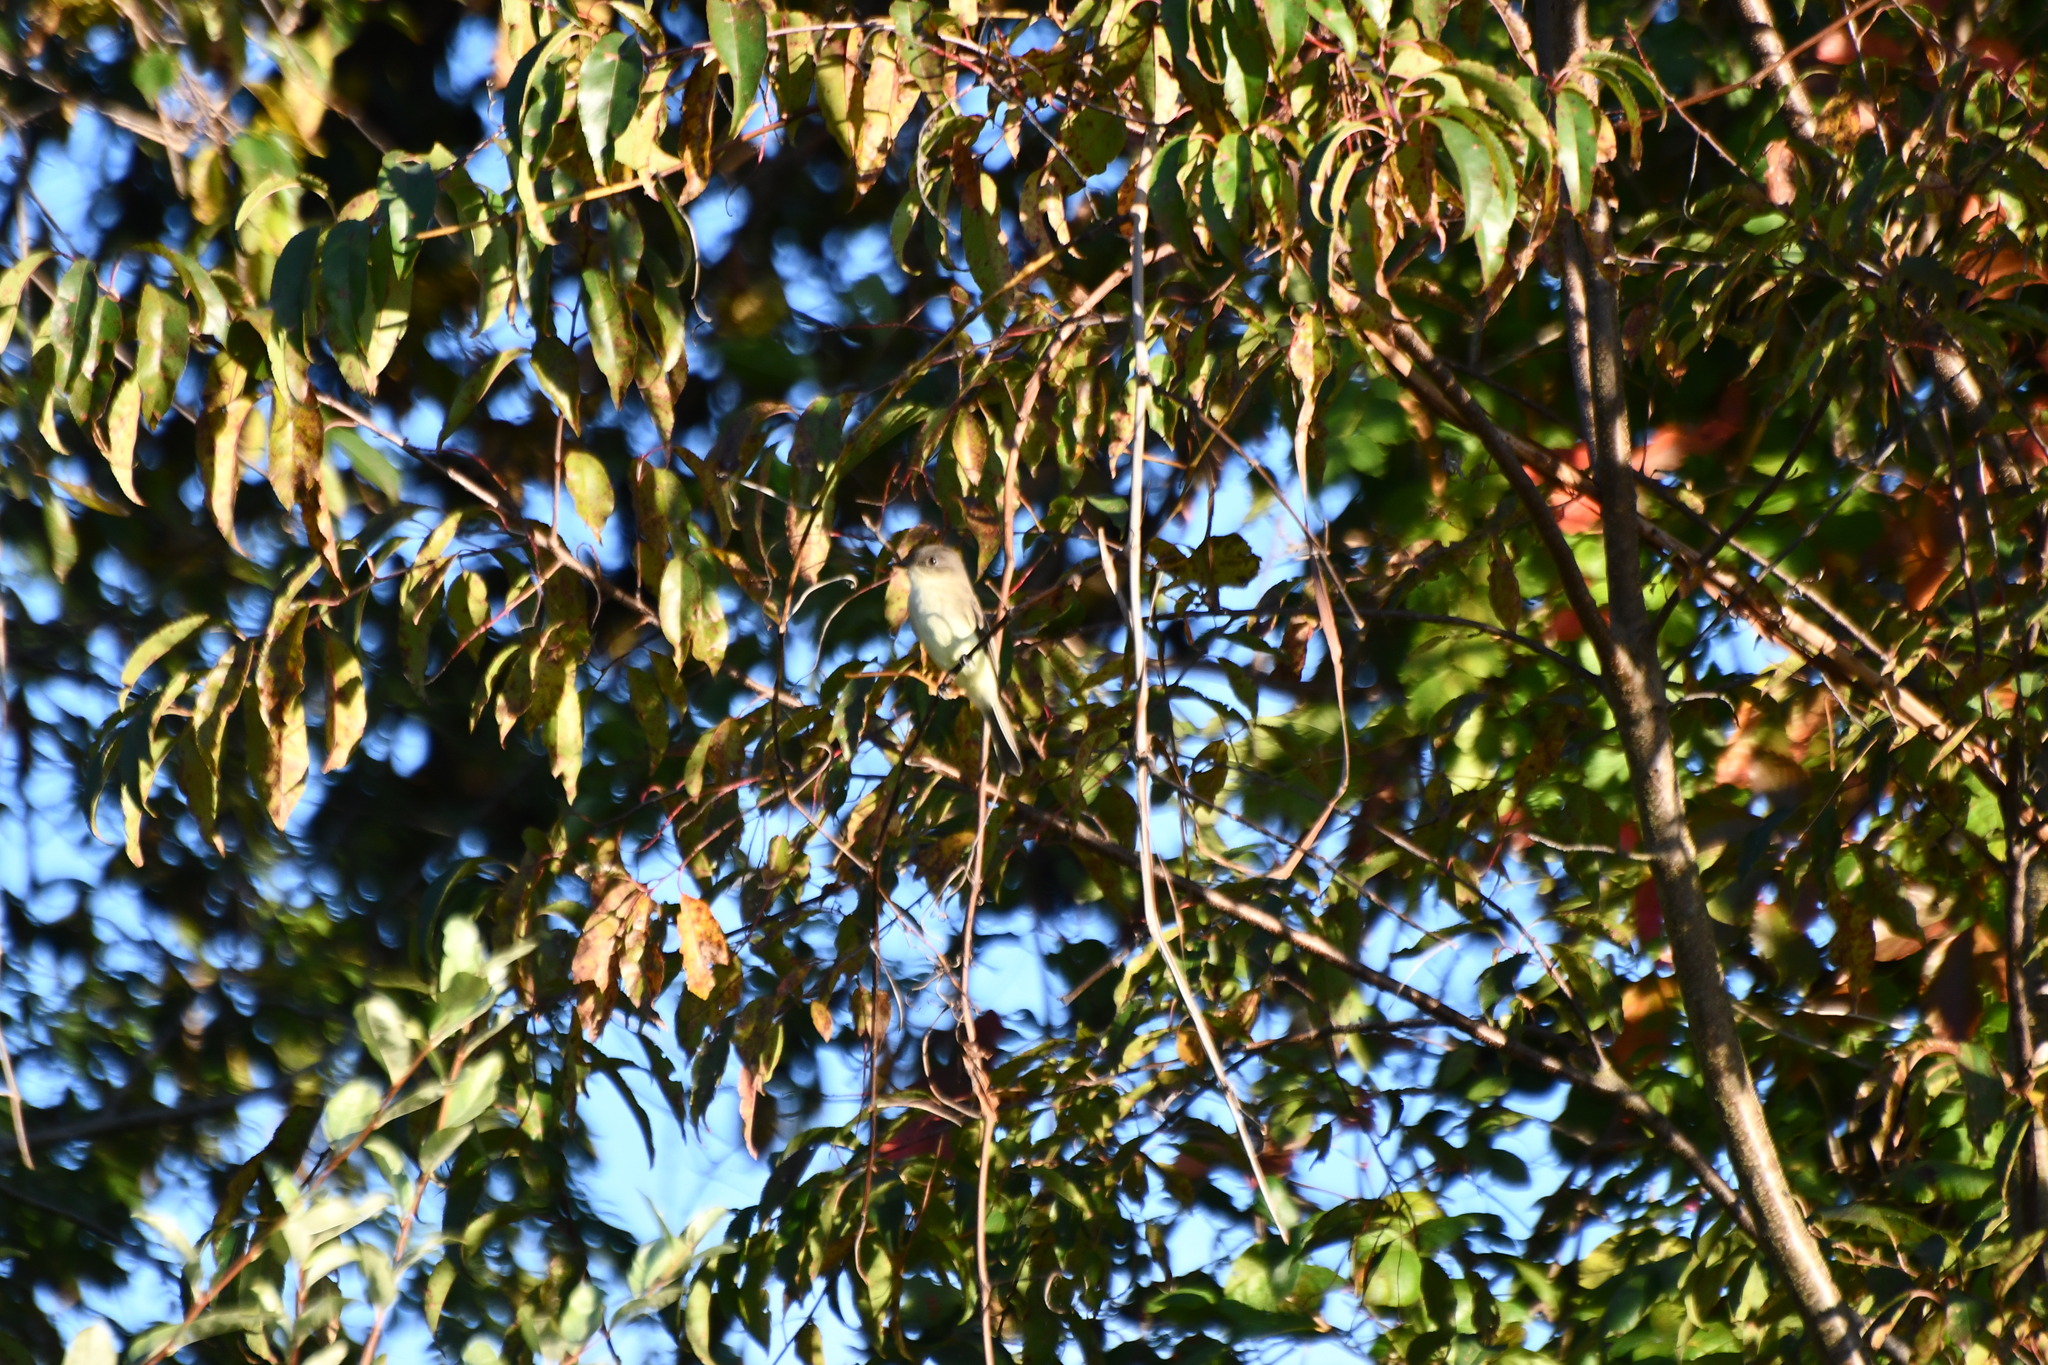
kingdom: Animalia
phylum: Chordata
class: Aves
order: Passeriformes
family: Tyrannidae
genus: Sayornis
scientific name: Sayornis phoebe
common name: Eastern phoebe
